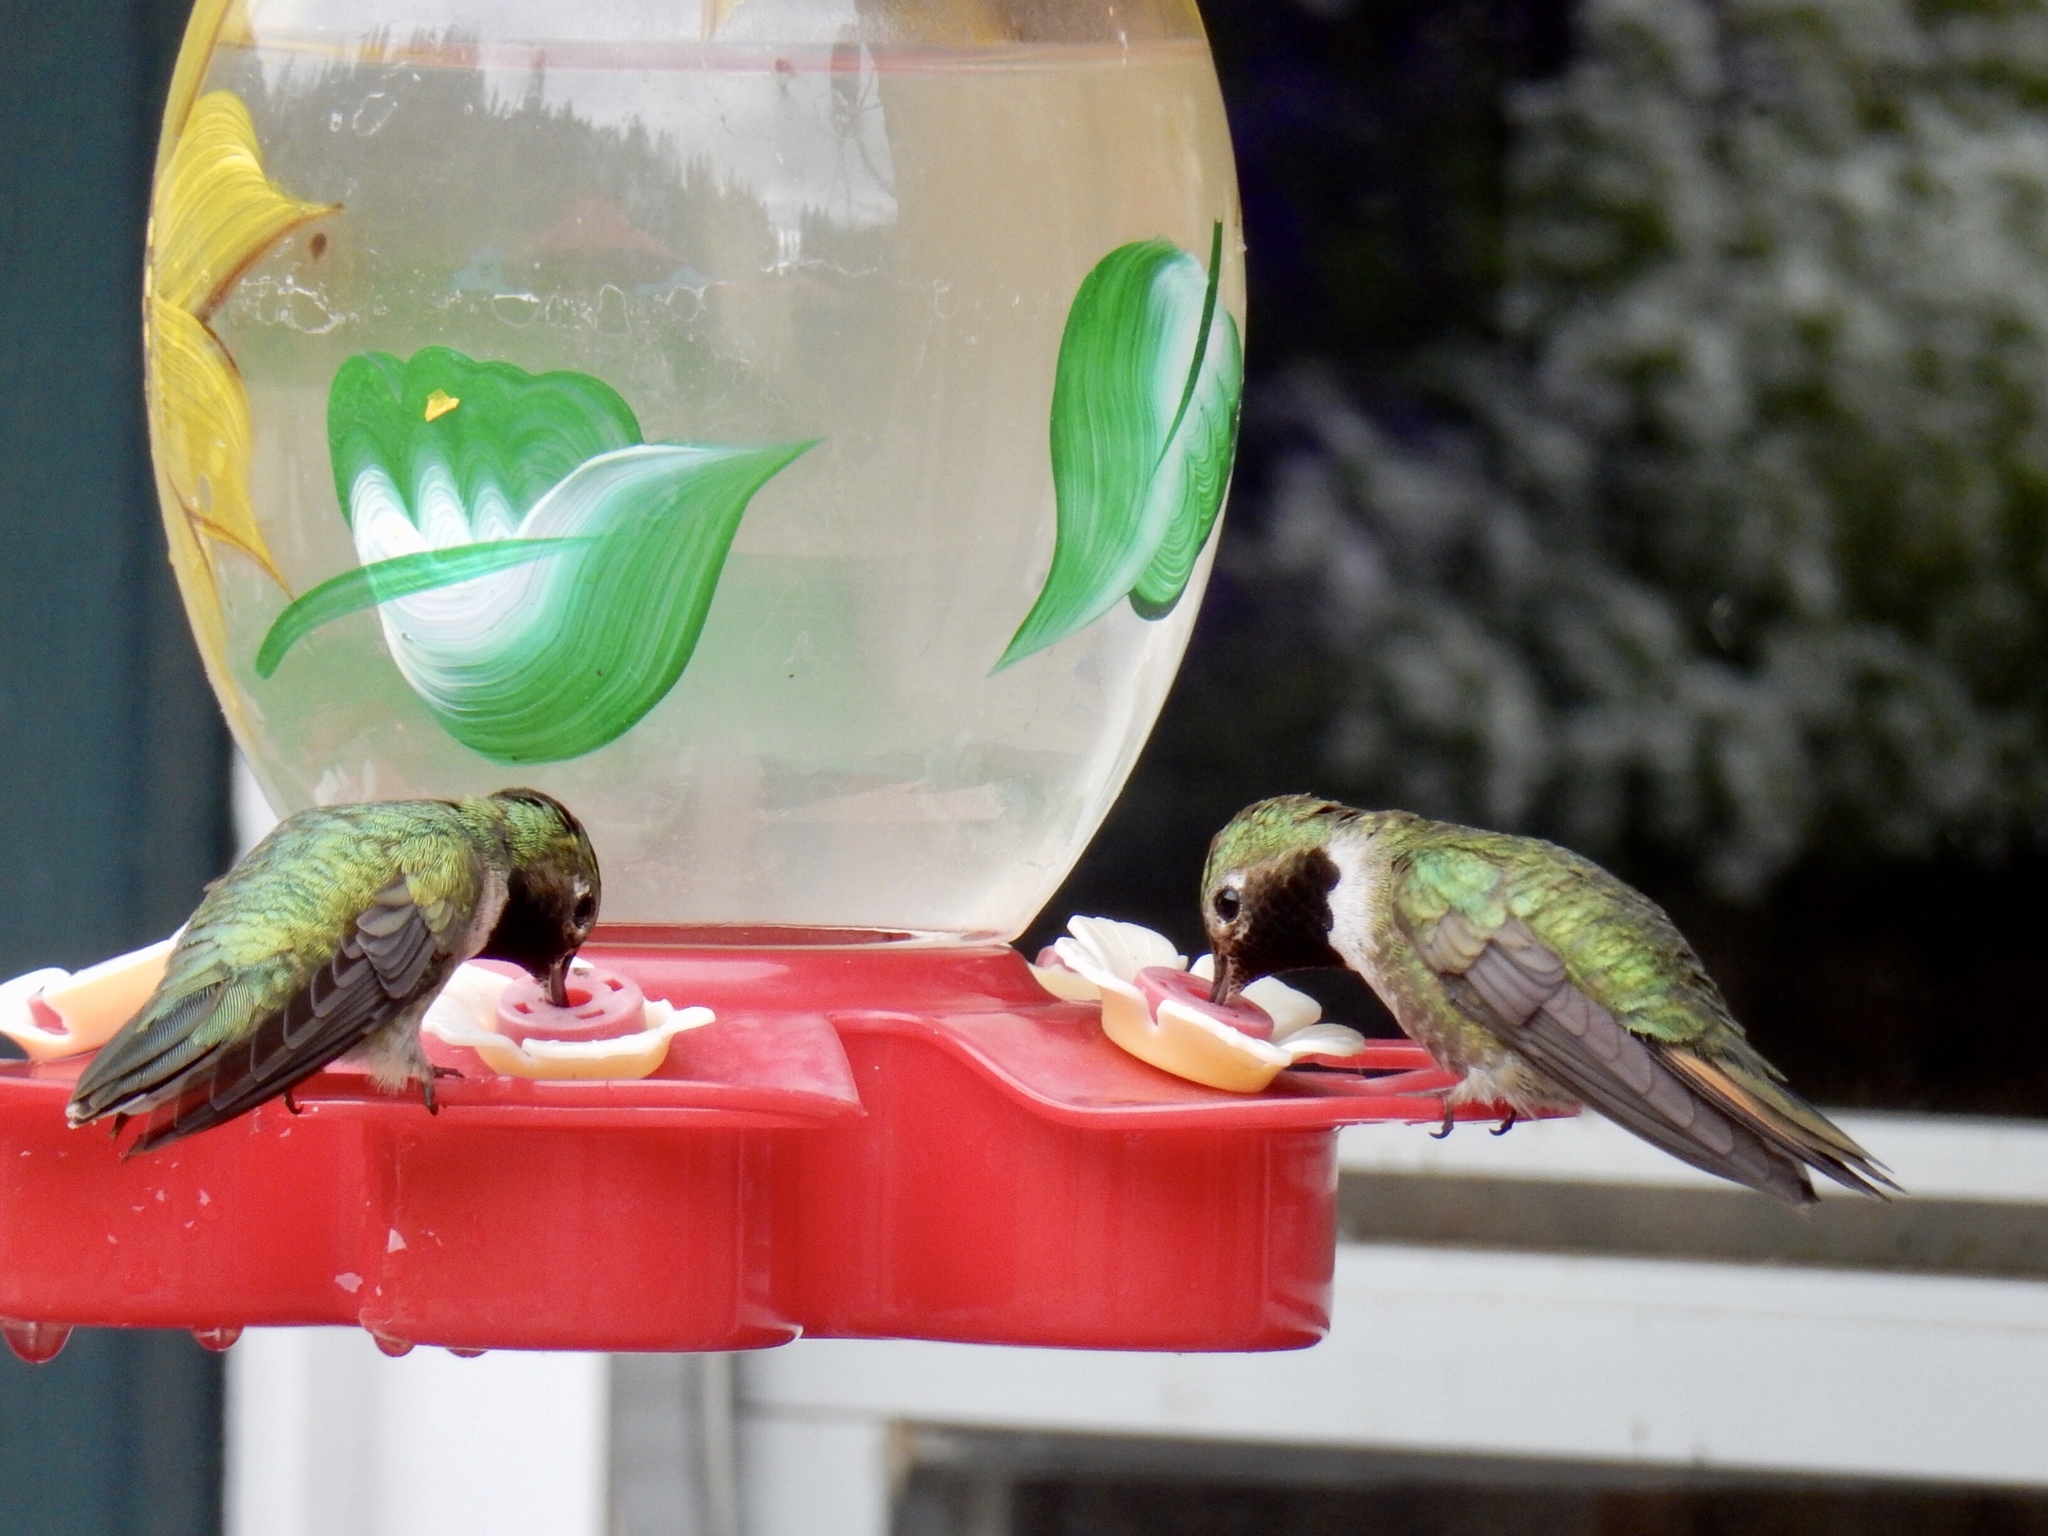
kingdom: Animalia
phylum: Chordata
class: Aves
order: Apodiformes
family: Trochilidae
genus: Selasphorus
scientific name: Selasphorus platycercus
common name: Broad-tailed hummingbird
